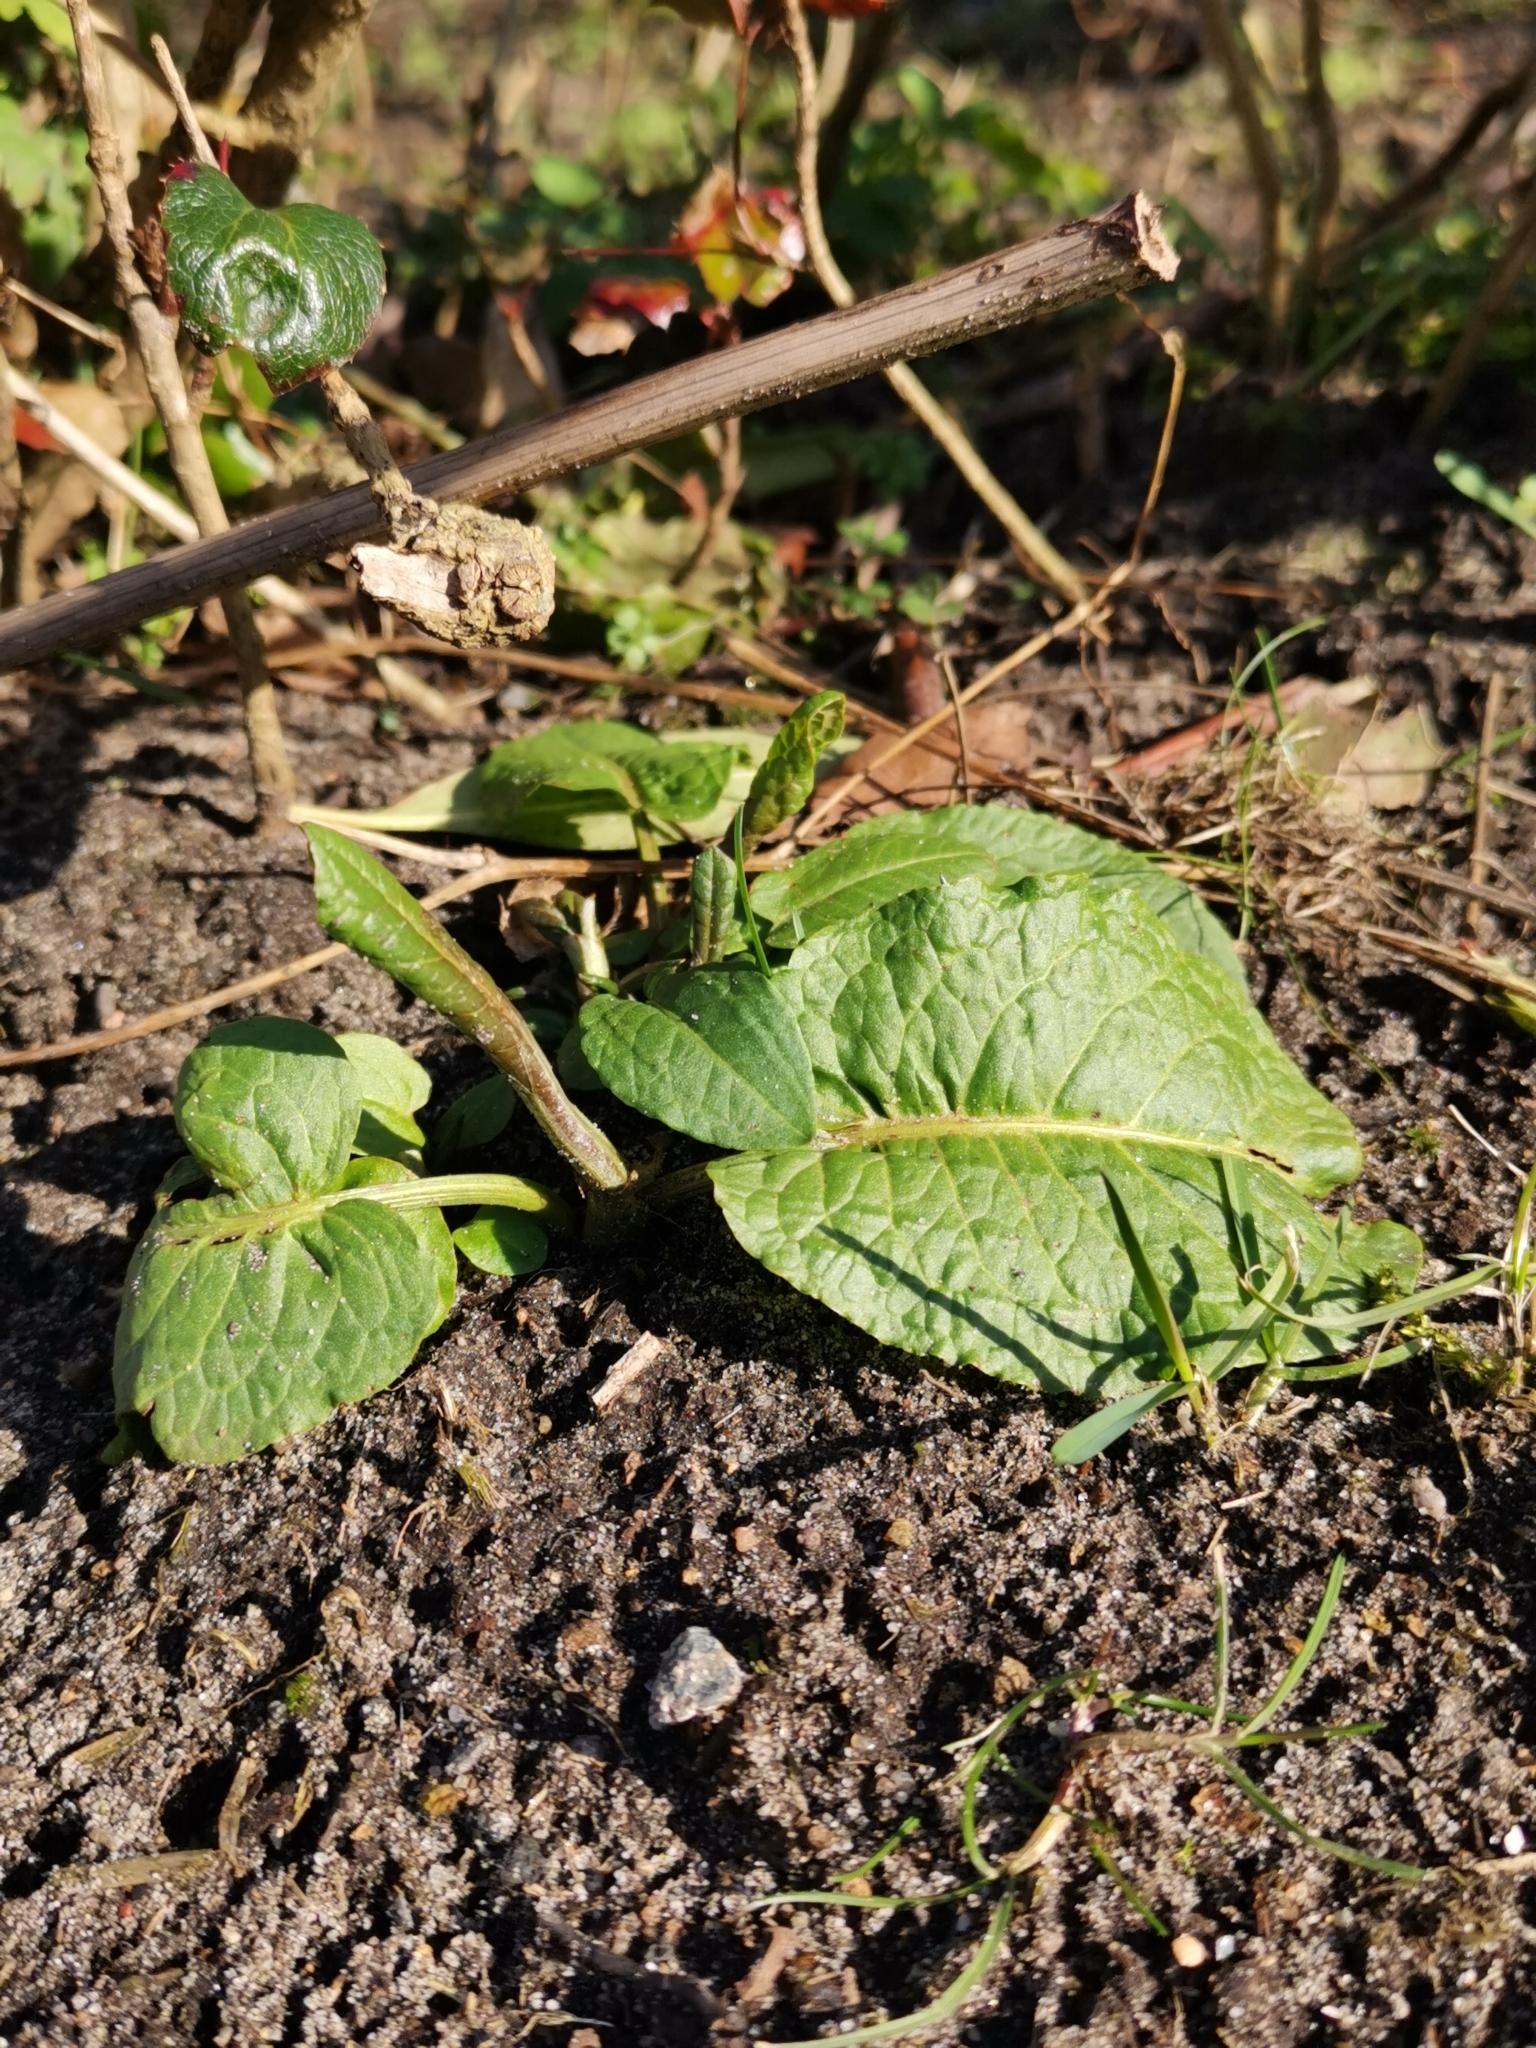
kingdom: Plantae
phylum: Tracheophyta
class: Magnoliopsida
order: Caryophyllales
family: Polygonaceae
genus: Rumex
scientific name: Rumex obtusifolius
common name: Bitter dock
